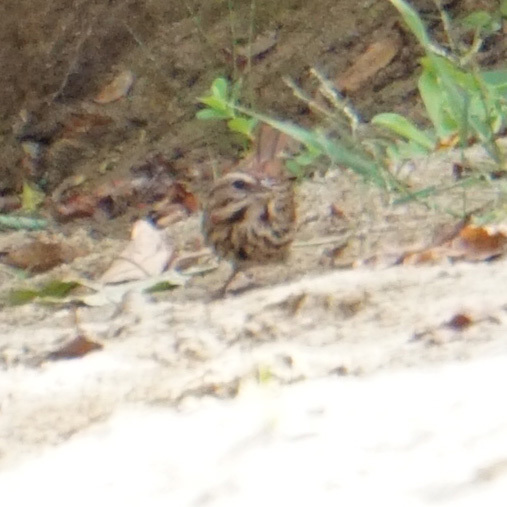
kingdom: Animalia
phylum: Chordata
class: Aves
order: Passeriformes
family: Passerellidae
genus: Melospiza
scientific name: Melospiza melodia
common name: Song sparrow
